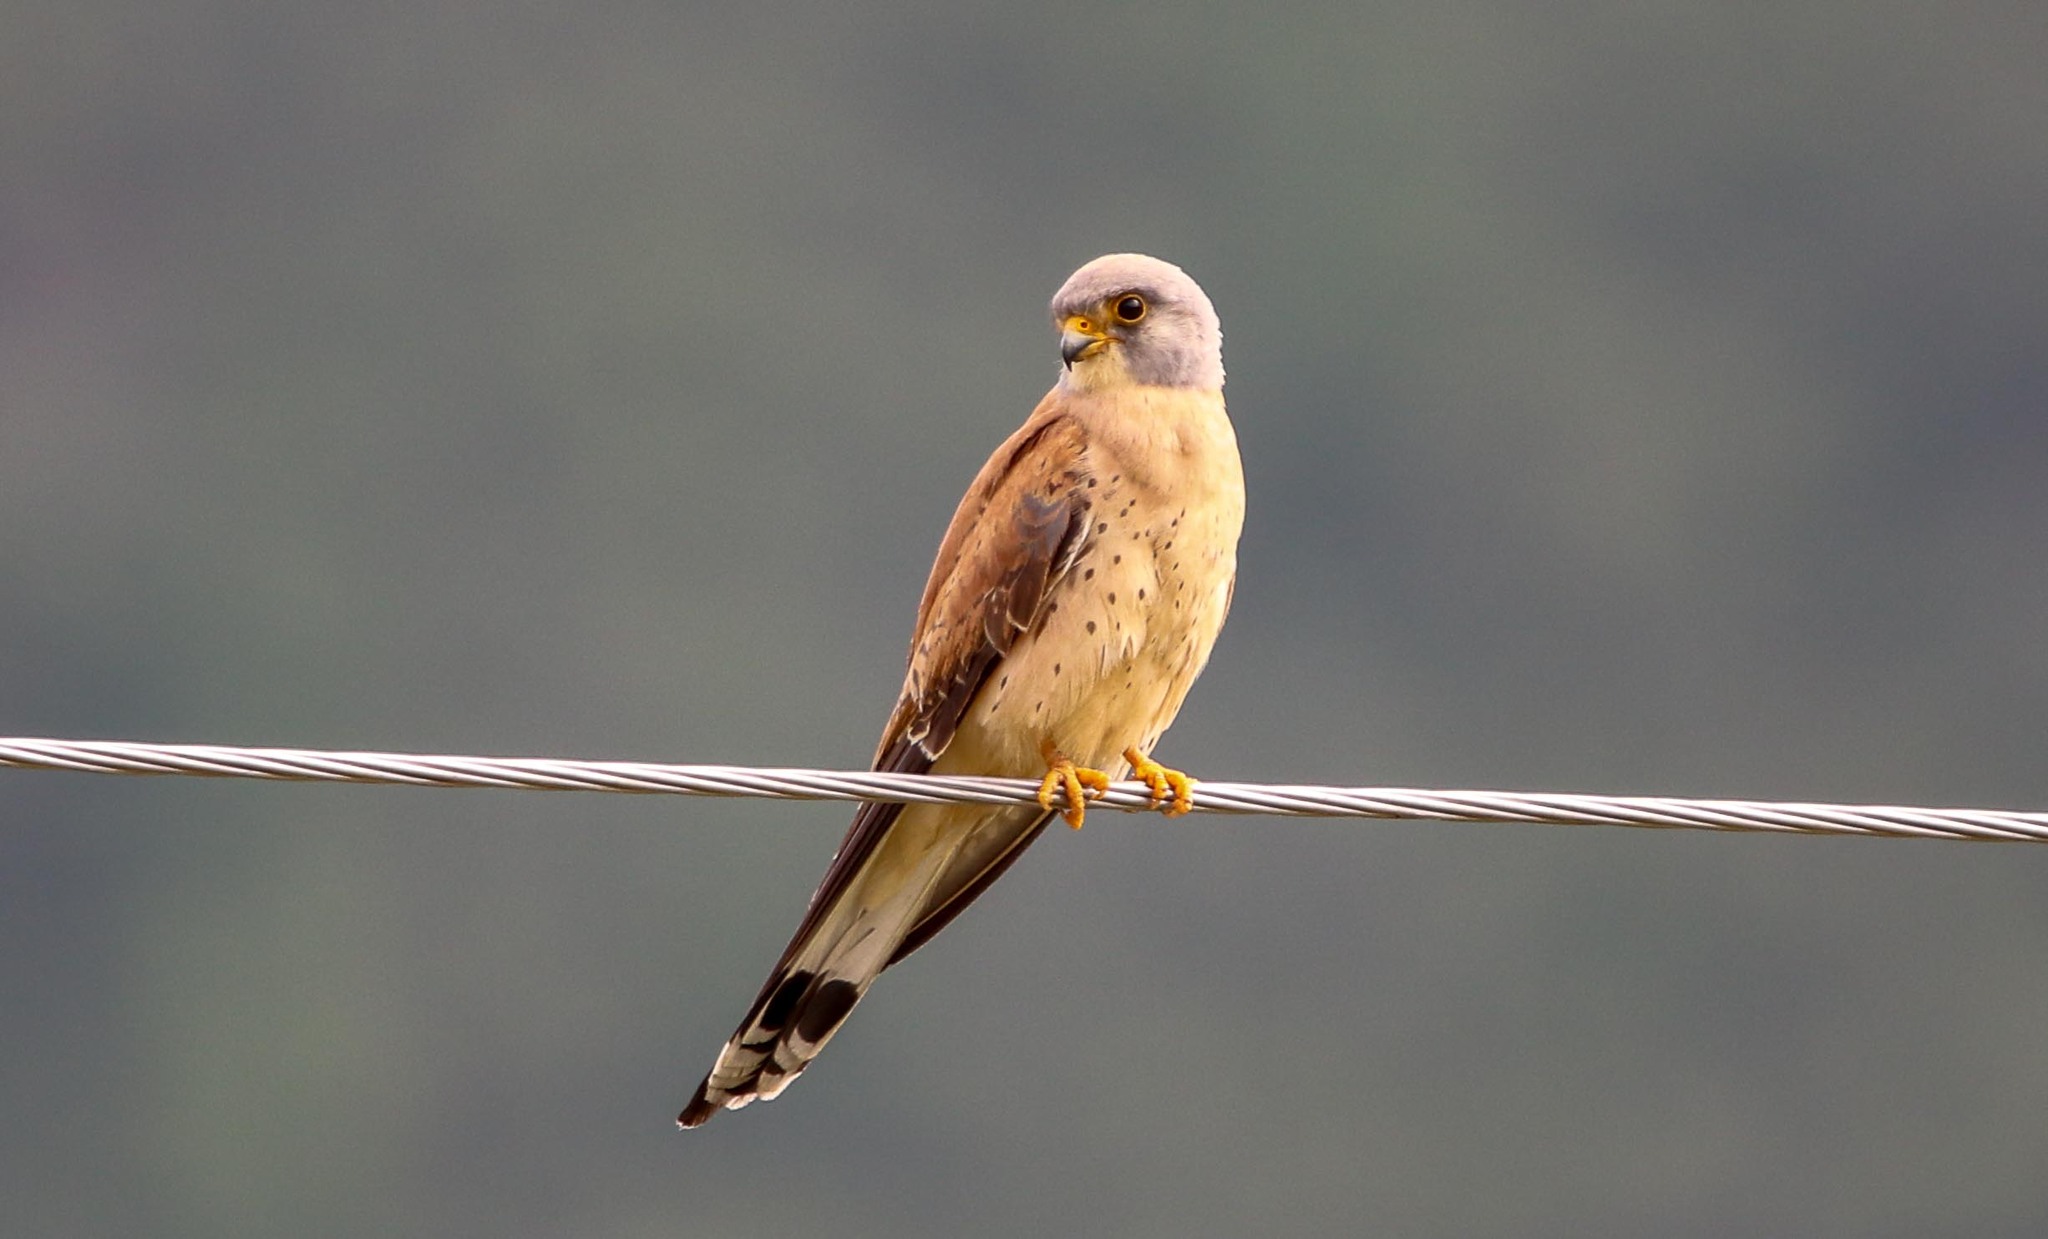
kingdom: Animalia
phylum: Chordata
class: Aves
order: Falconiformes
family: Falconidae
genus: Falco
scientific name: Falco naumanni
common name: Lesser kestrel
